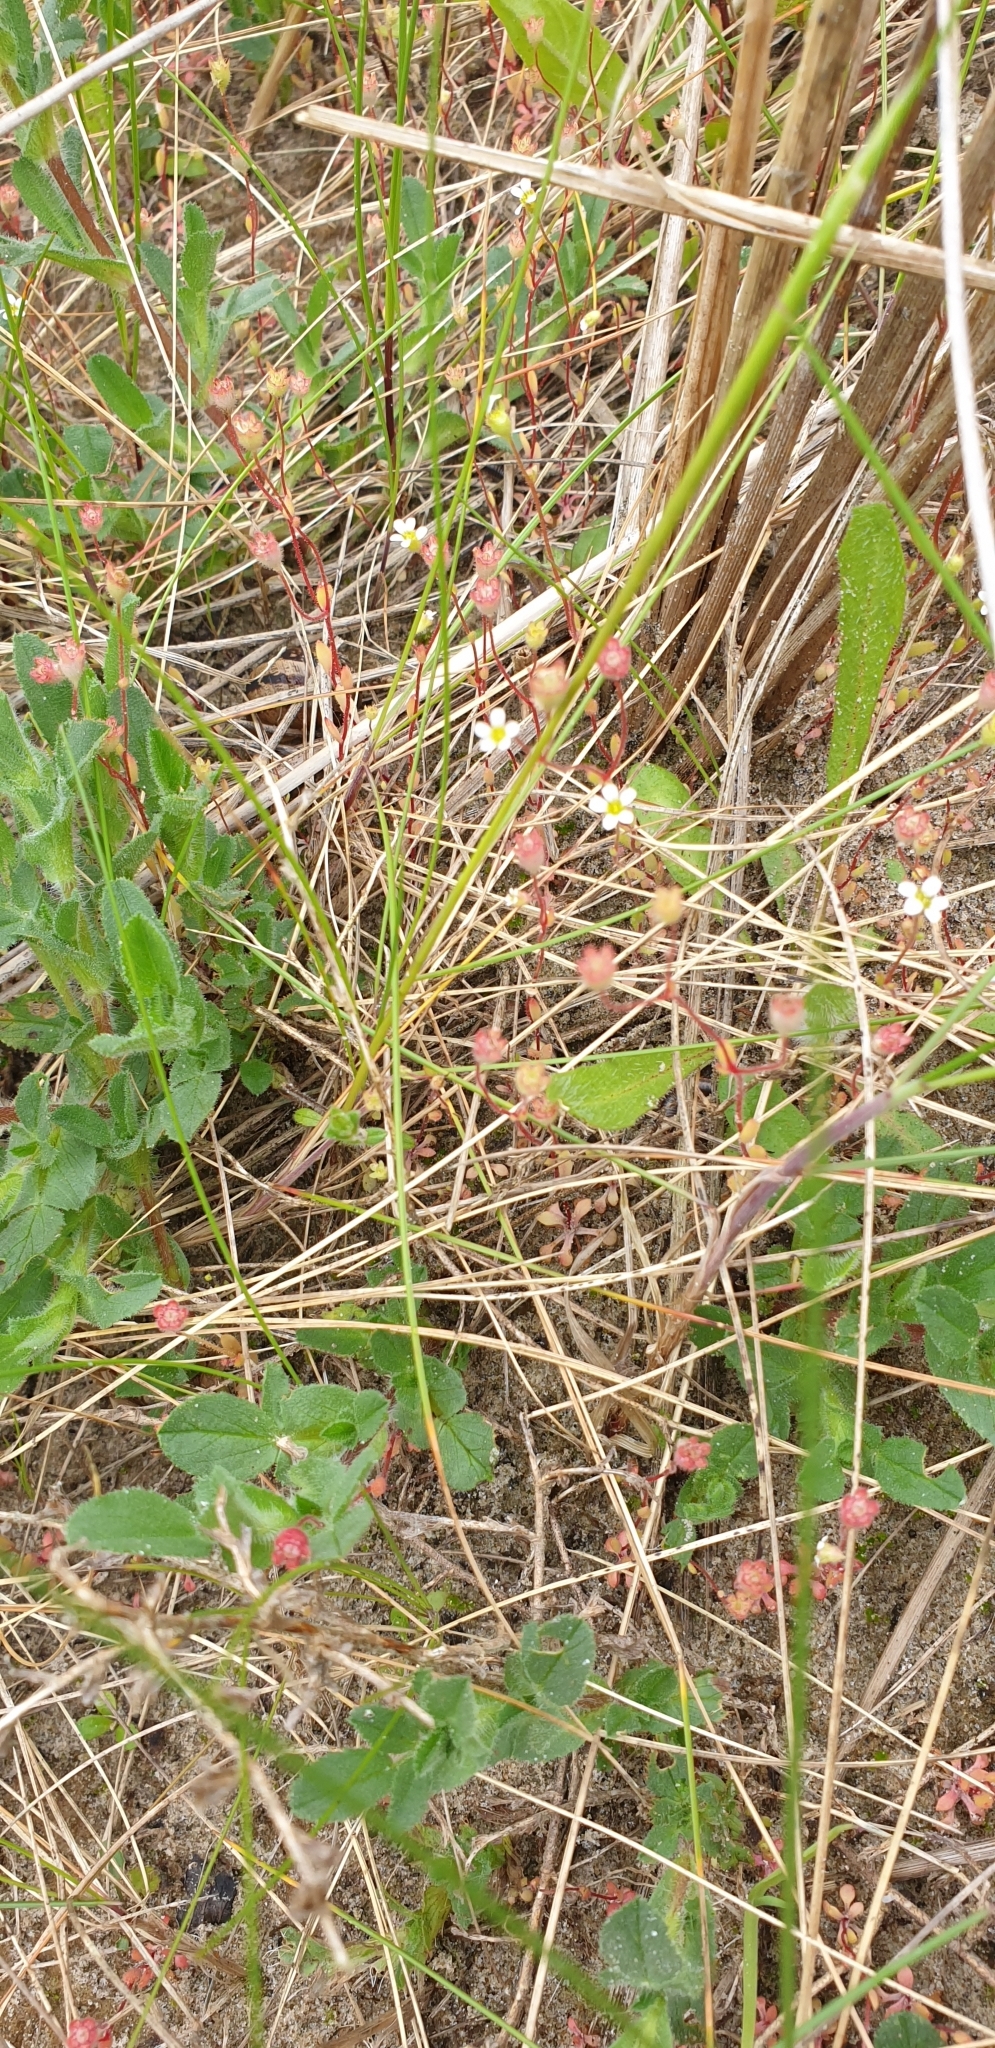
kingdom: Plantae
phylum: Tracheophyta
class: Magnoliopsida
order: Saxifragales
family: Saxifragaceae
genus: Saxifraga
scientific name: Saxifraga tridactylites
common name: Rue-leaved saxifrage
